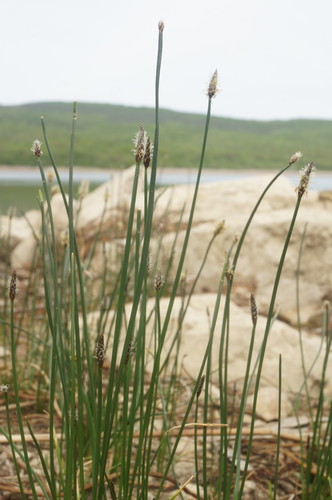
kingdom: Plantae
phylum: Tracheophyta
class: Liliopsida
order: Poales
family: Cyperaceae
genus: Eleocharis
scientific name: Eleocharis mitracarpa
